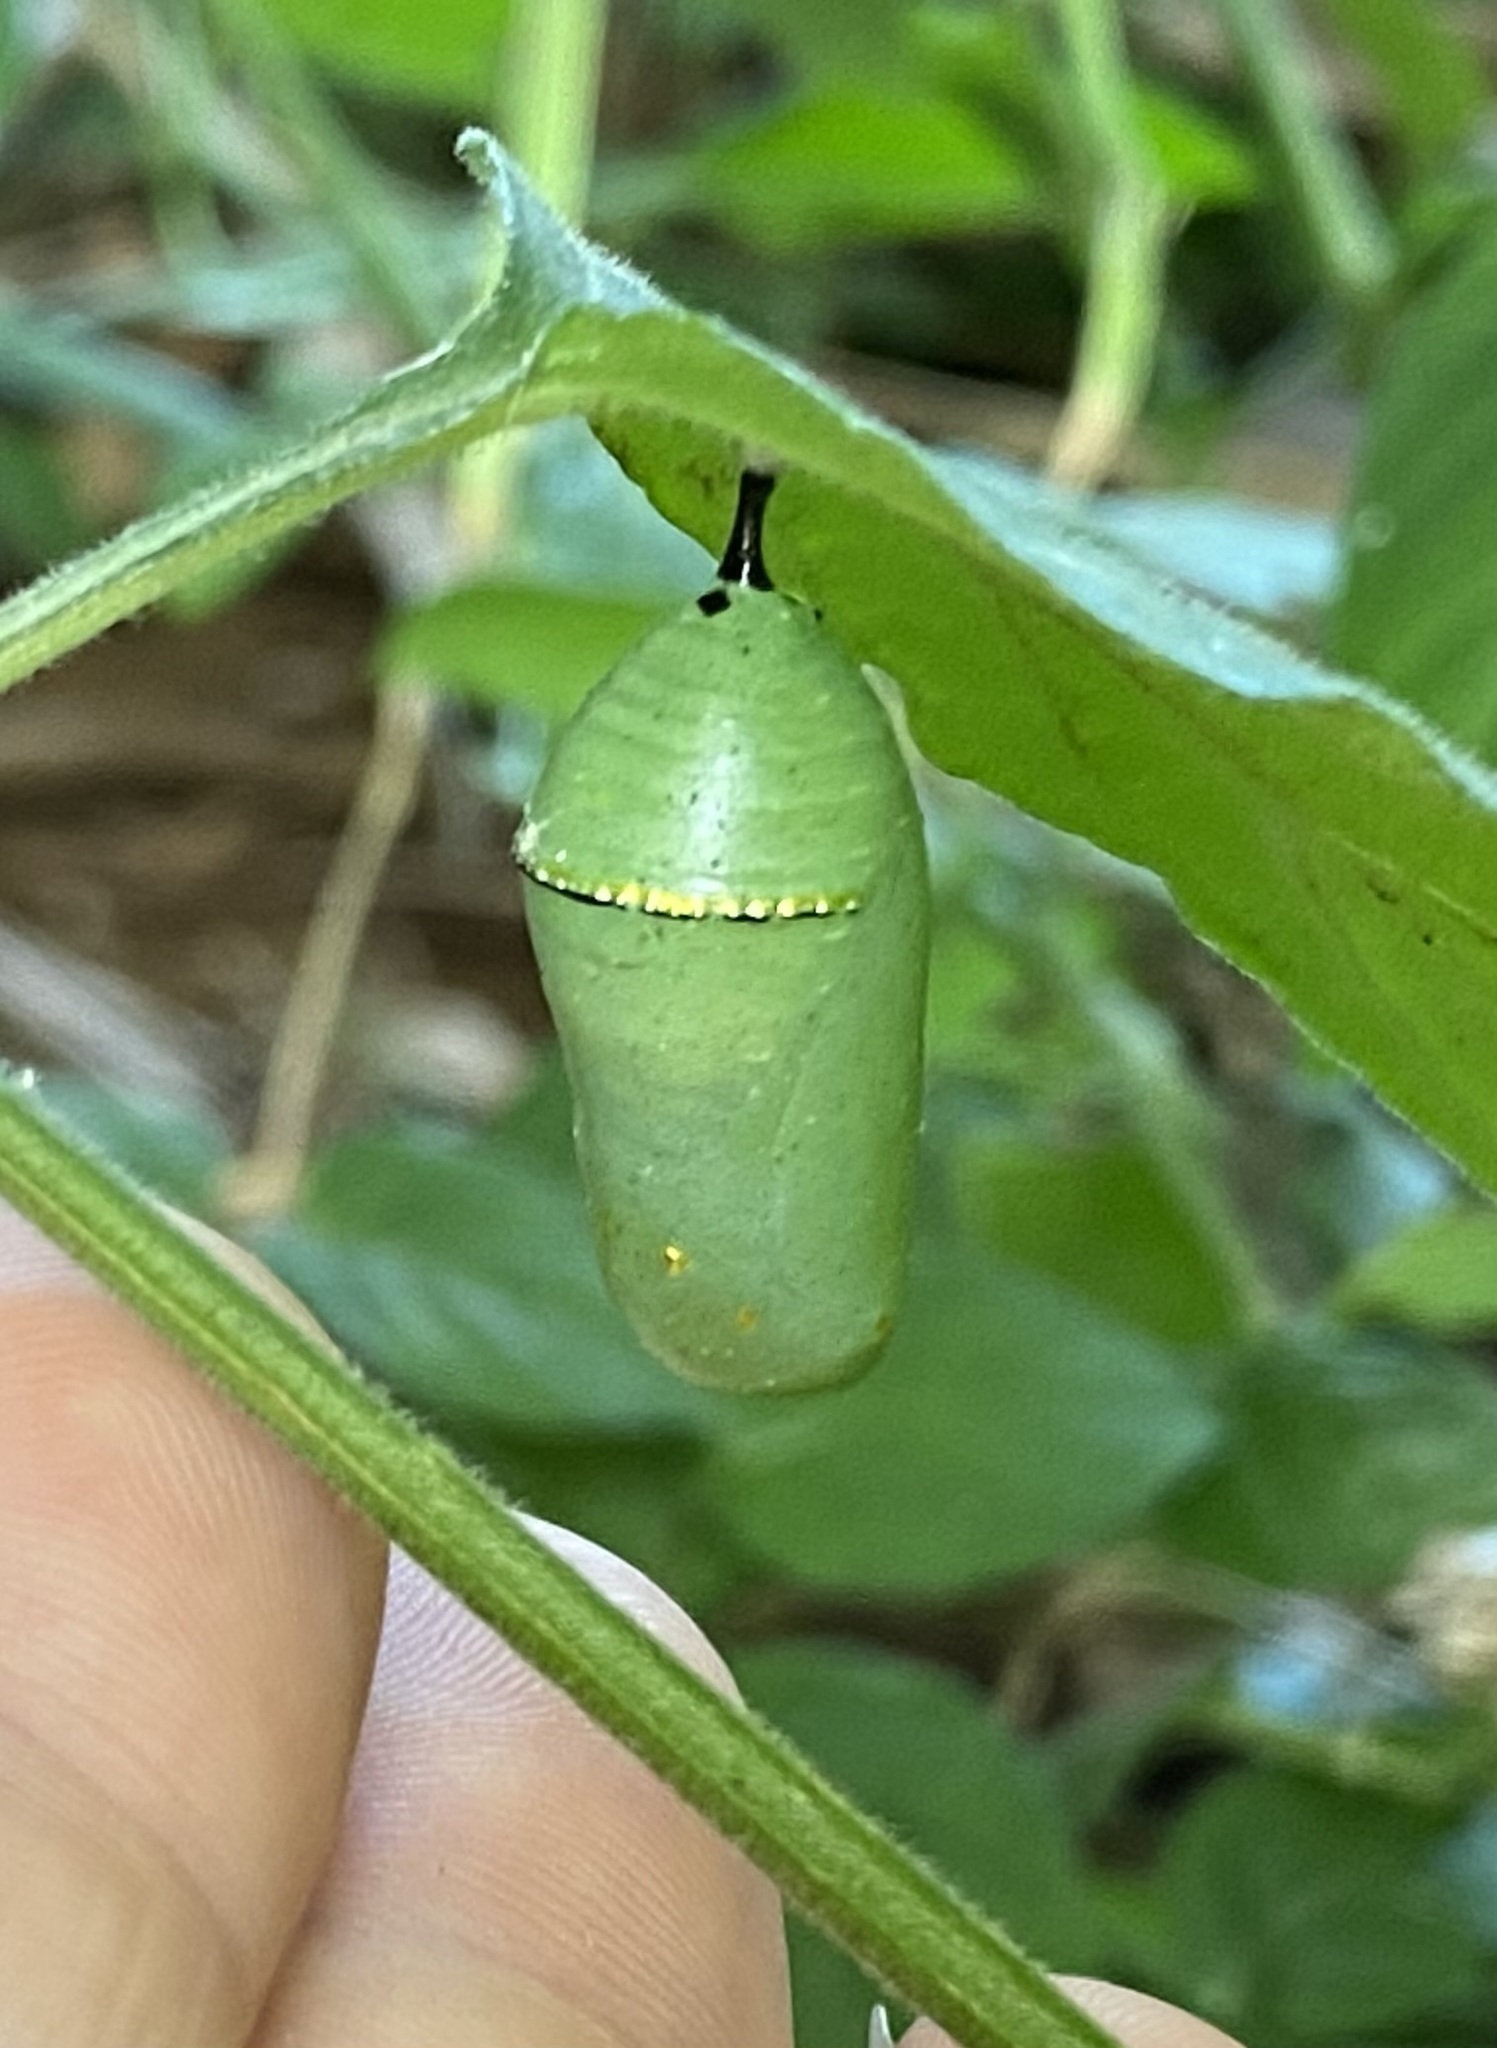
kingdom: Animalia
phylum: Arthropoda
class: Insecta
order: Lepidoptera
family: Nymphalidae
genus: Danaus
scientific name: Danaus plexippus
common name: Monarch
